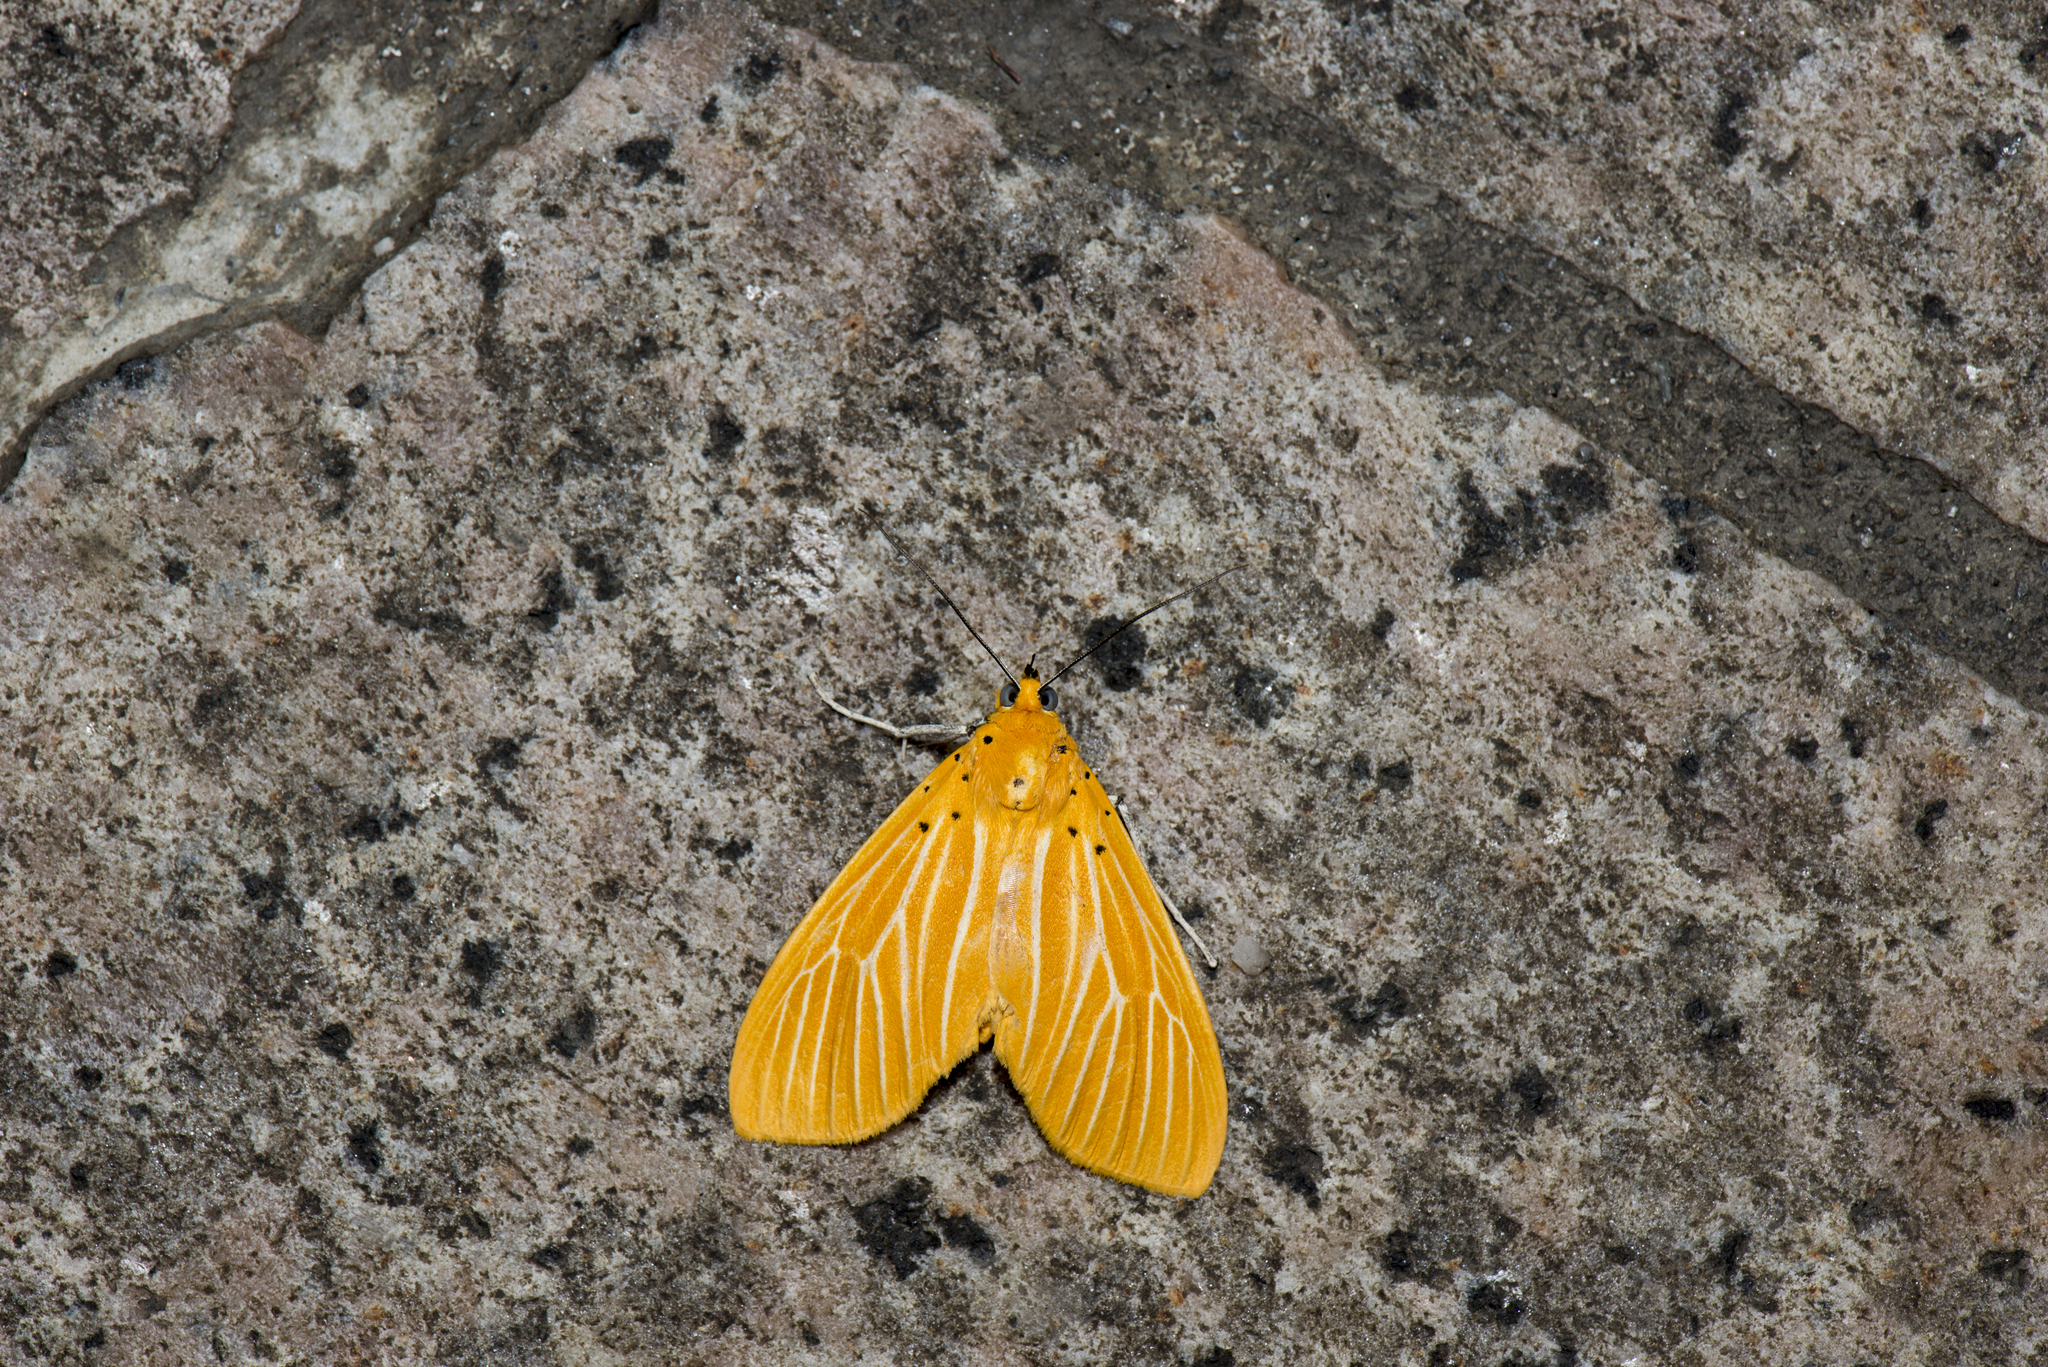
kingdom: Animalia
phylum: Arthropoda
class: Insecta
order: Lepidoptera
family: Erebidae
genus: Asota
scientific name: Asota egens
